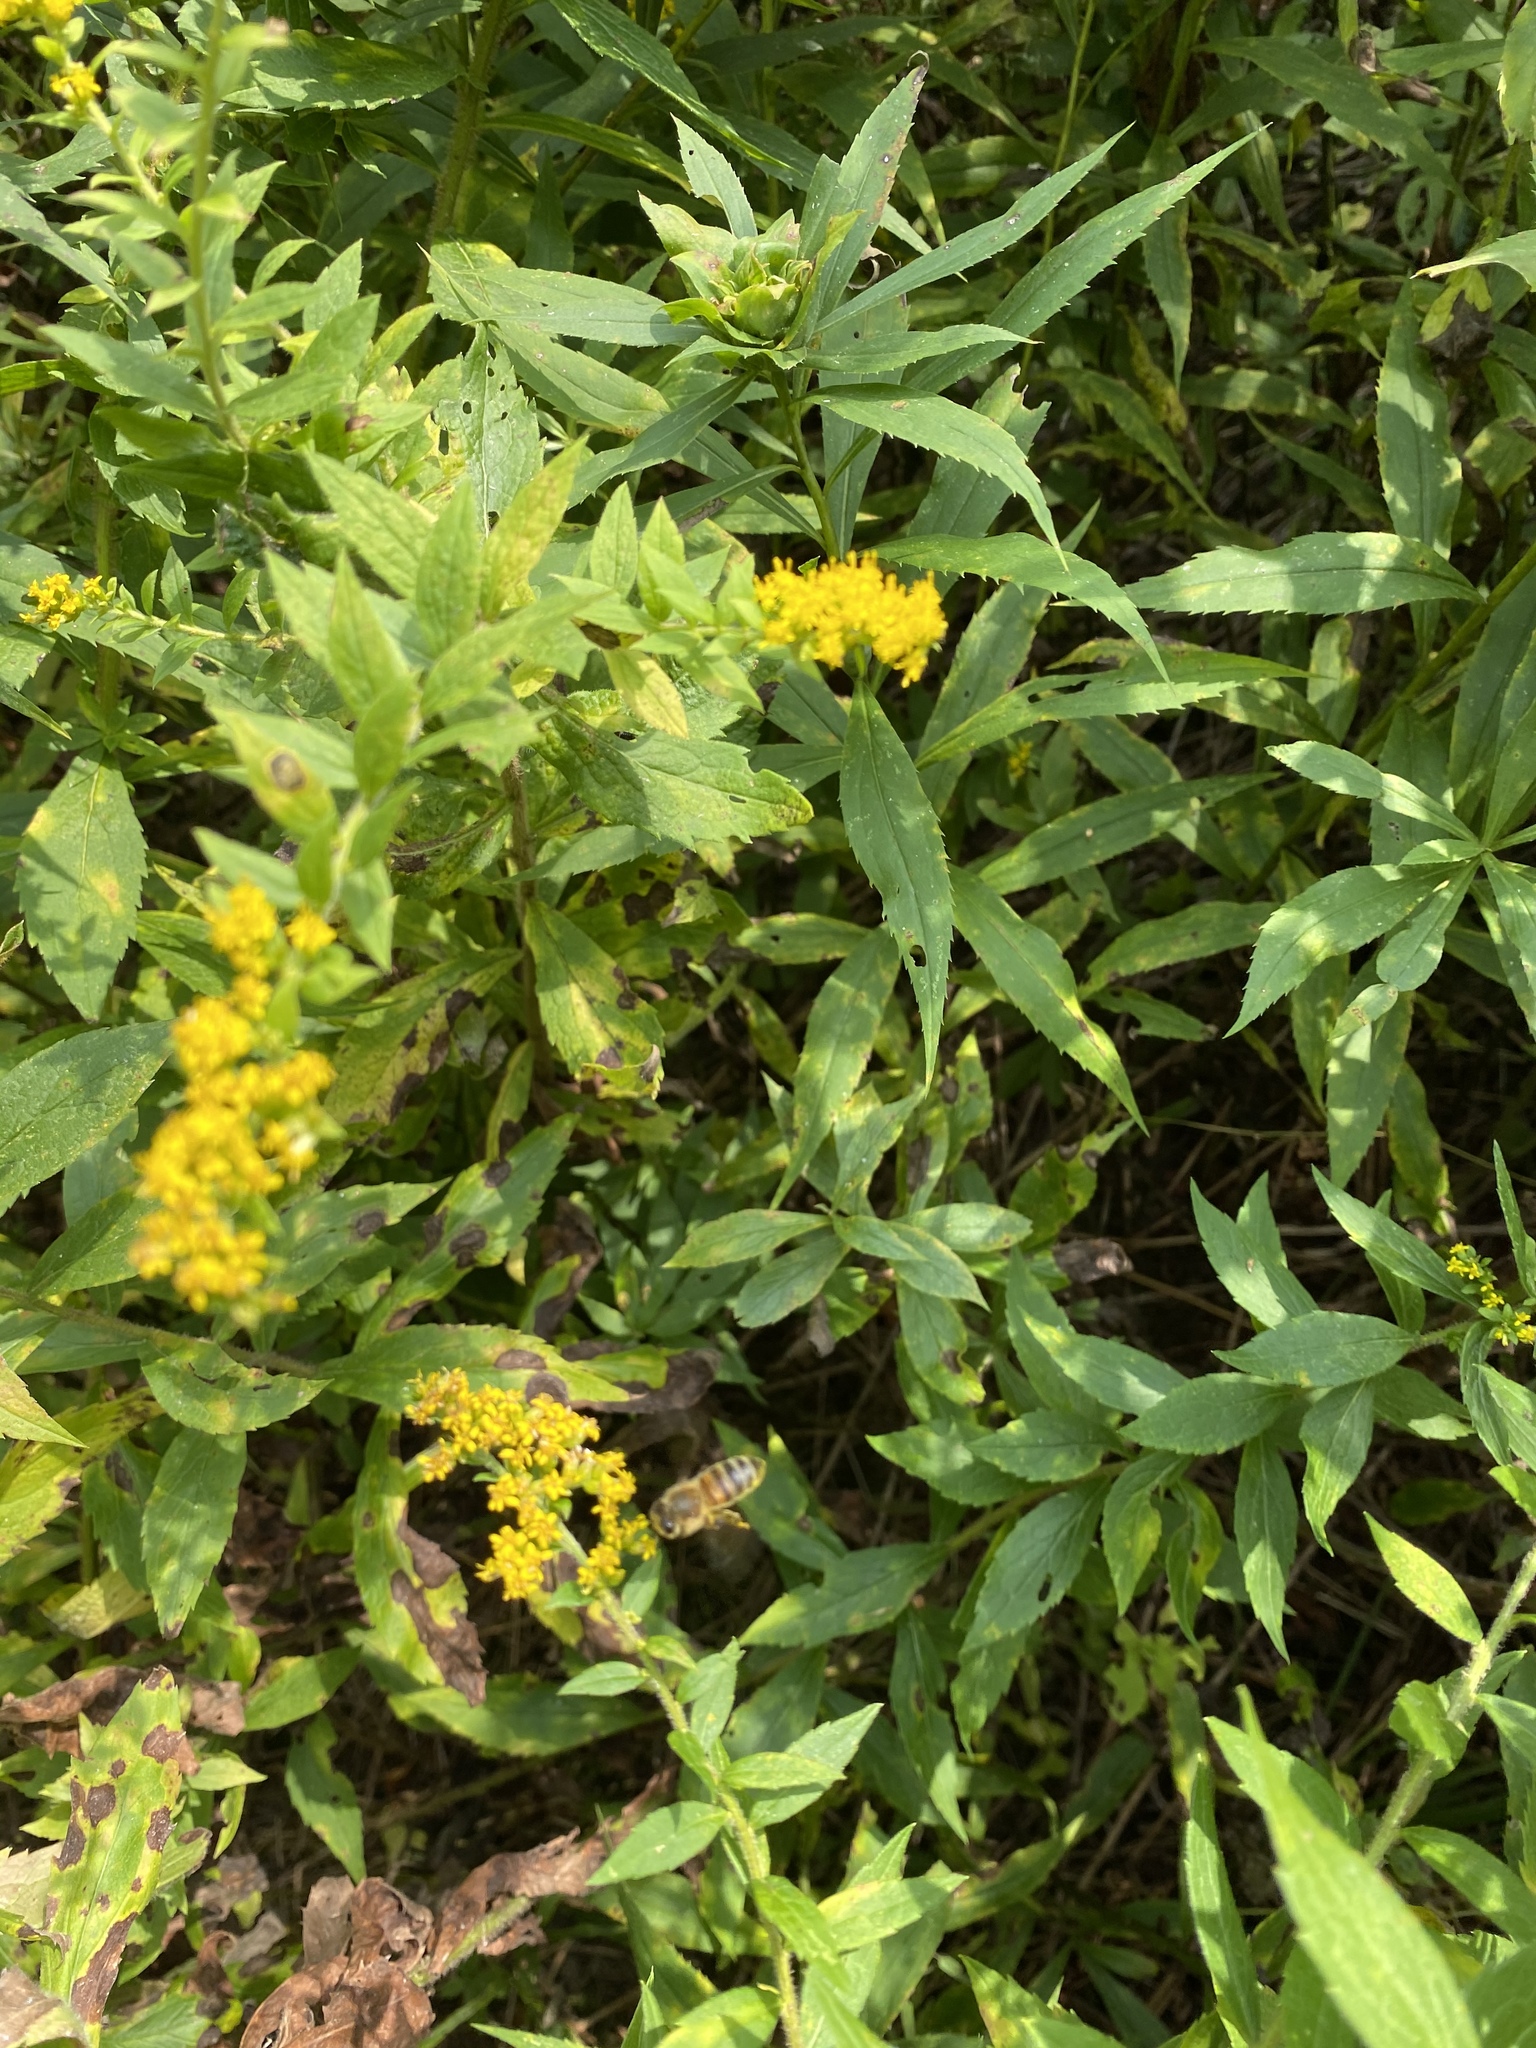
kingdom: Animalia
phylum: Arthropoda
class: Insecta
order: Hymenoptera
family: Apidae
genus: Apis
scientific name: Apis mellifera
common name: Honey bee
